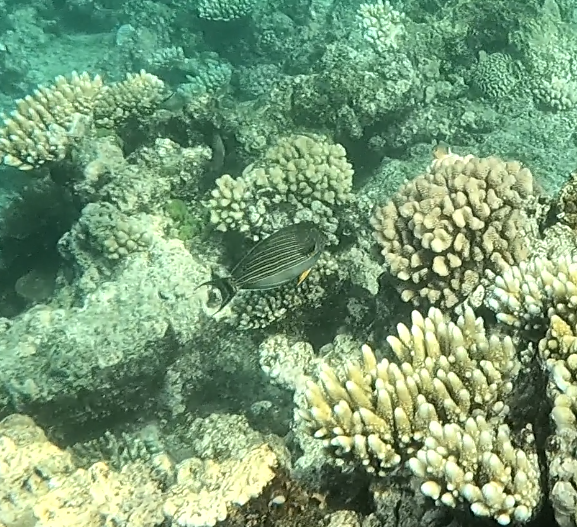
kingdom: Animalia
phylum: Chordata
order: Perciformes
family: Acanthuridae
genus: Acanthurus
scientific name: Acanthurus lineatus
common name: Striped surgeonfish
